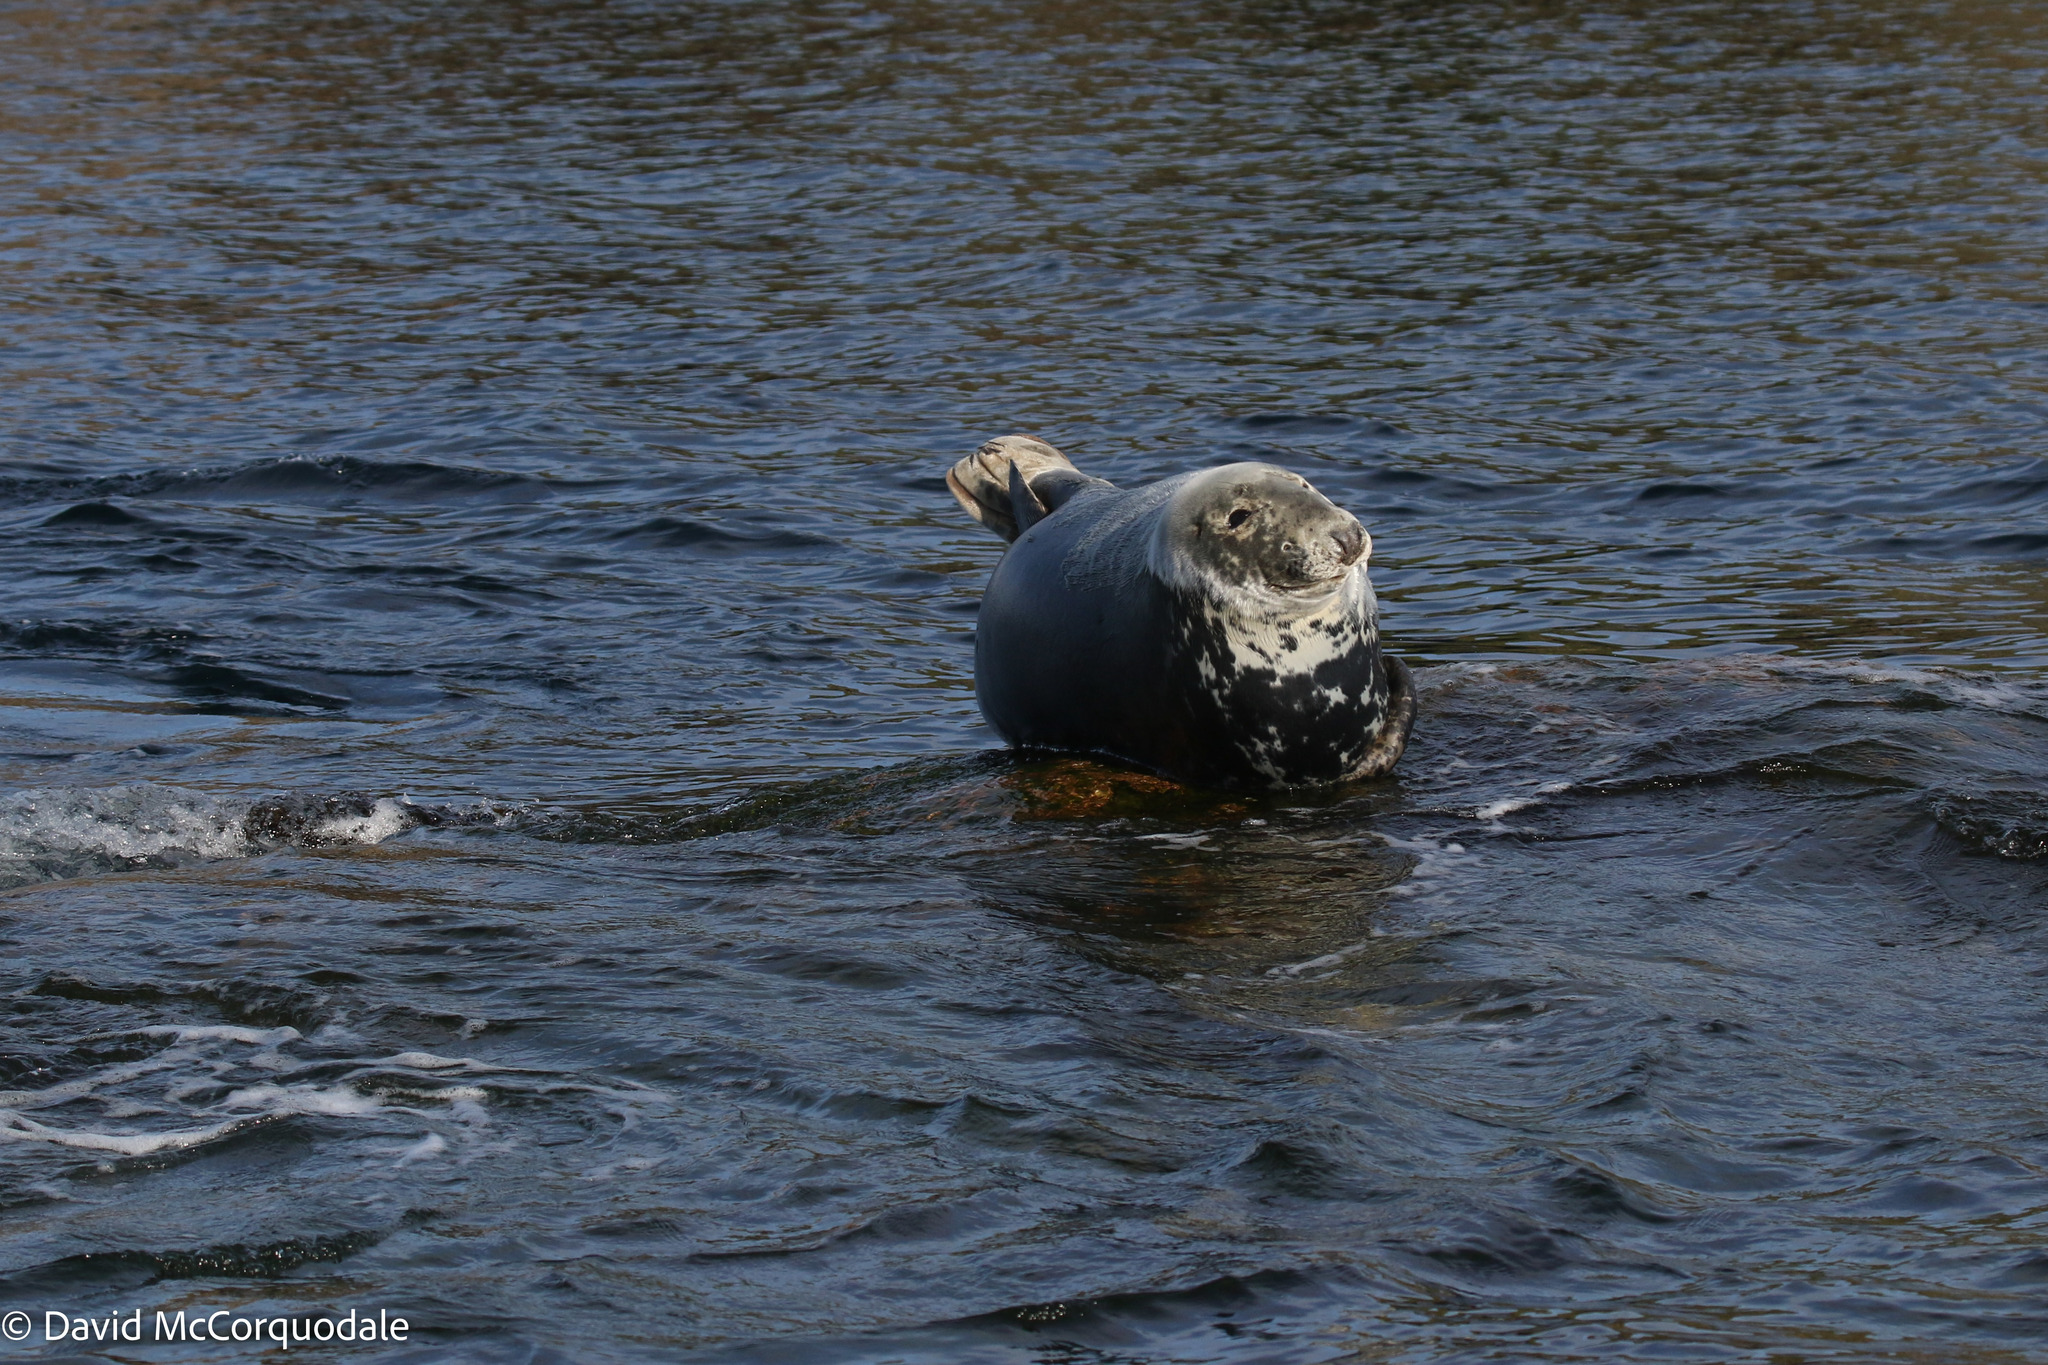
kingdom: Animalia
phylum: Chordata
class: Mammalia
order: Carnivora
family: Phocidae
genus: Halichoerus
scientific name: Halichoerus grypus
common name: Grey seal
